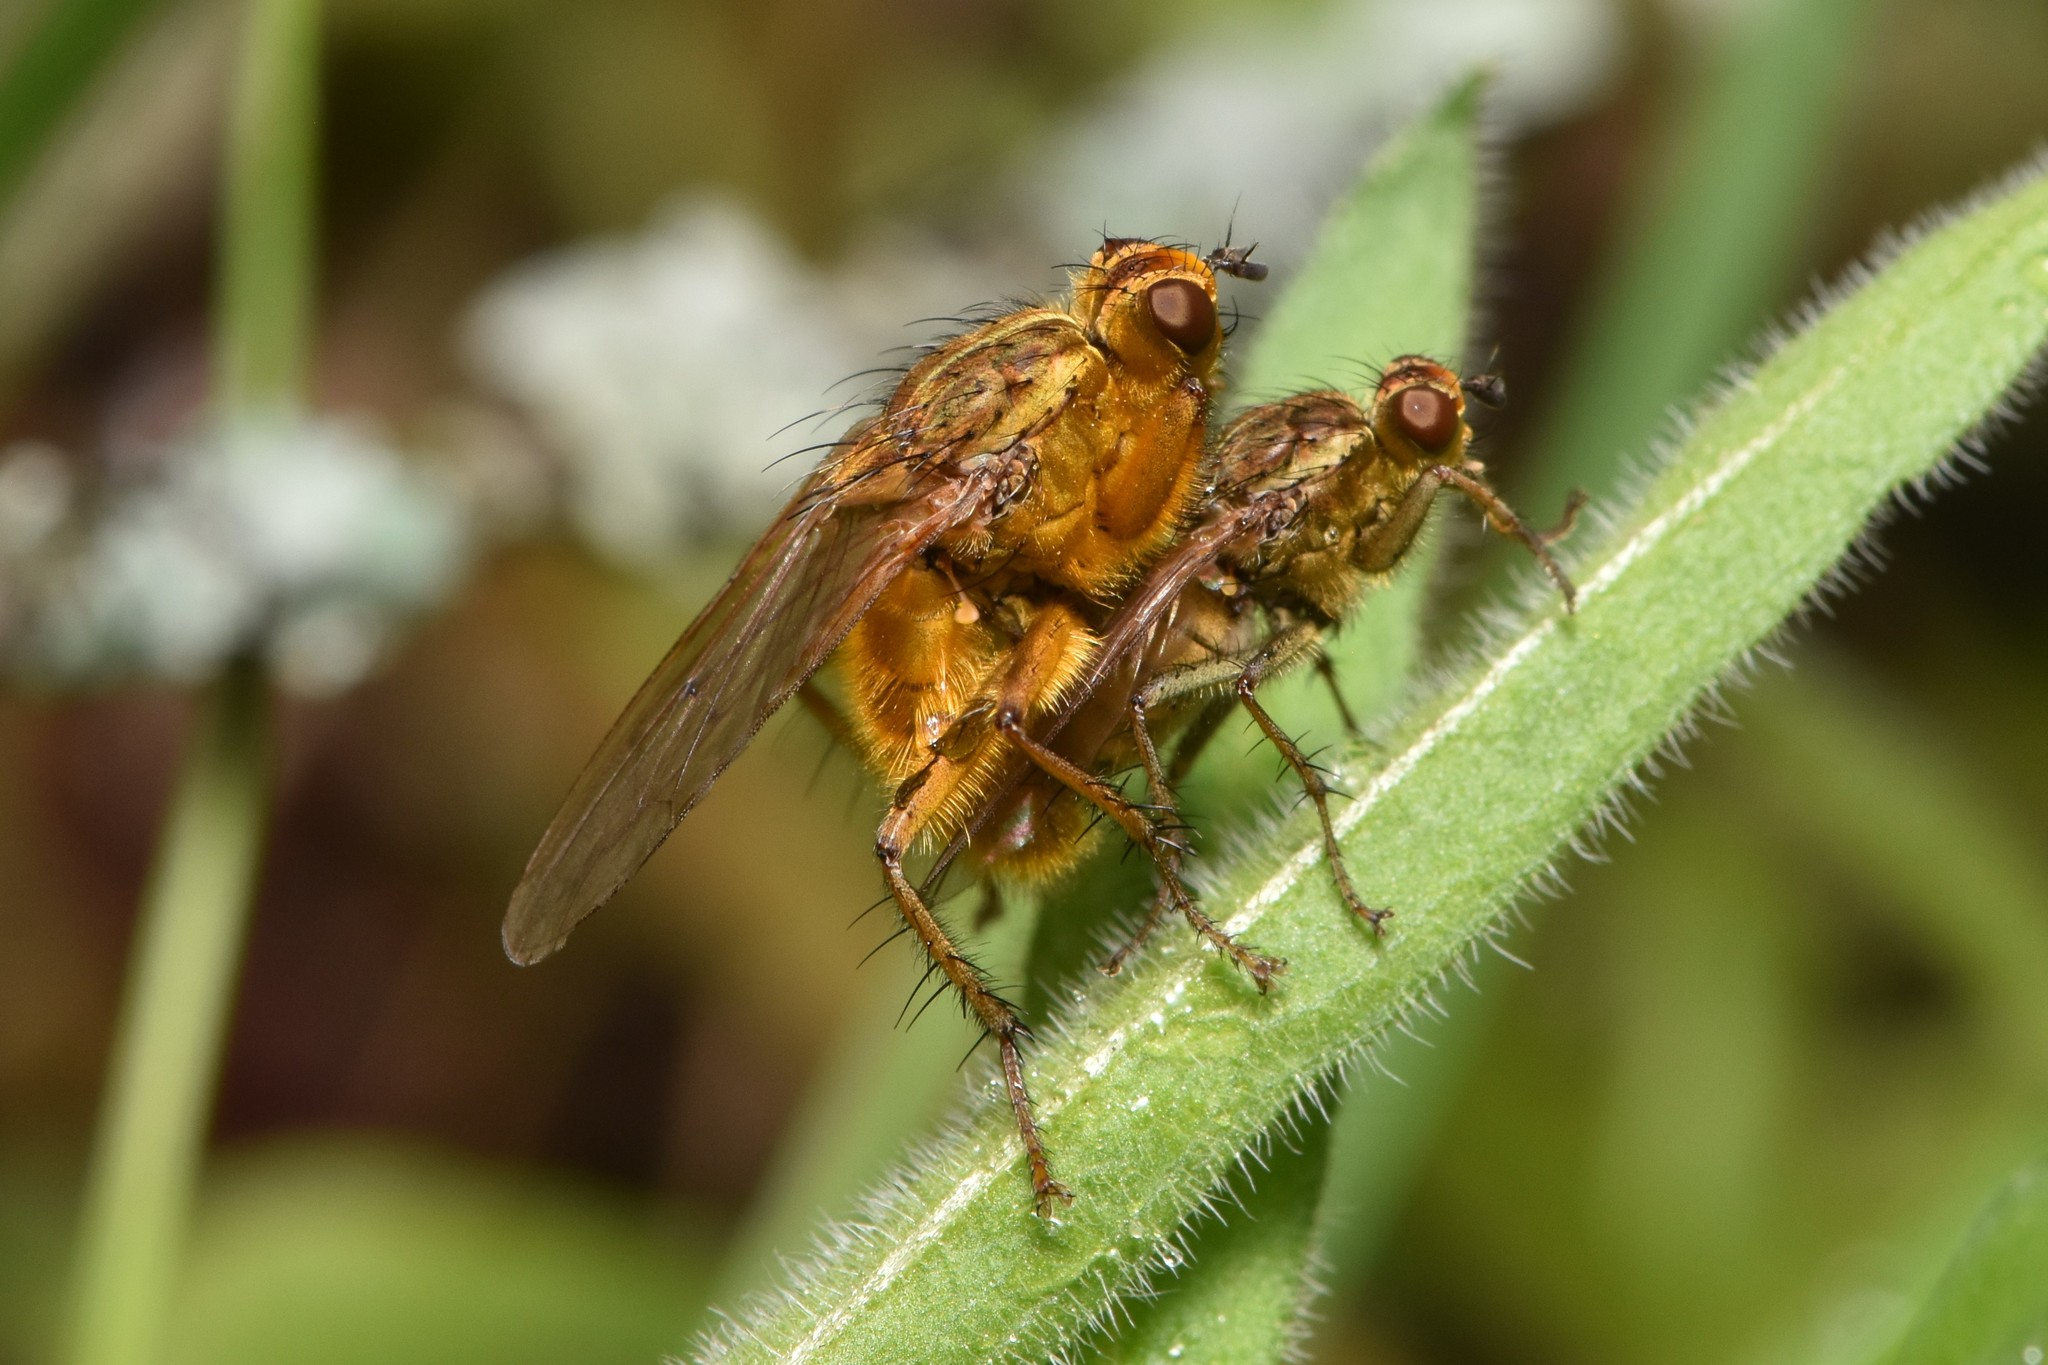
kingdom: Animalia
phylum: Arthropoda
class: Insecta
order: Diptera
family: Scathophagidae
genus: Scathophaga
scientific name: Scathophaga stercoraria
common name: Yellow dung fly
